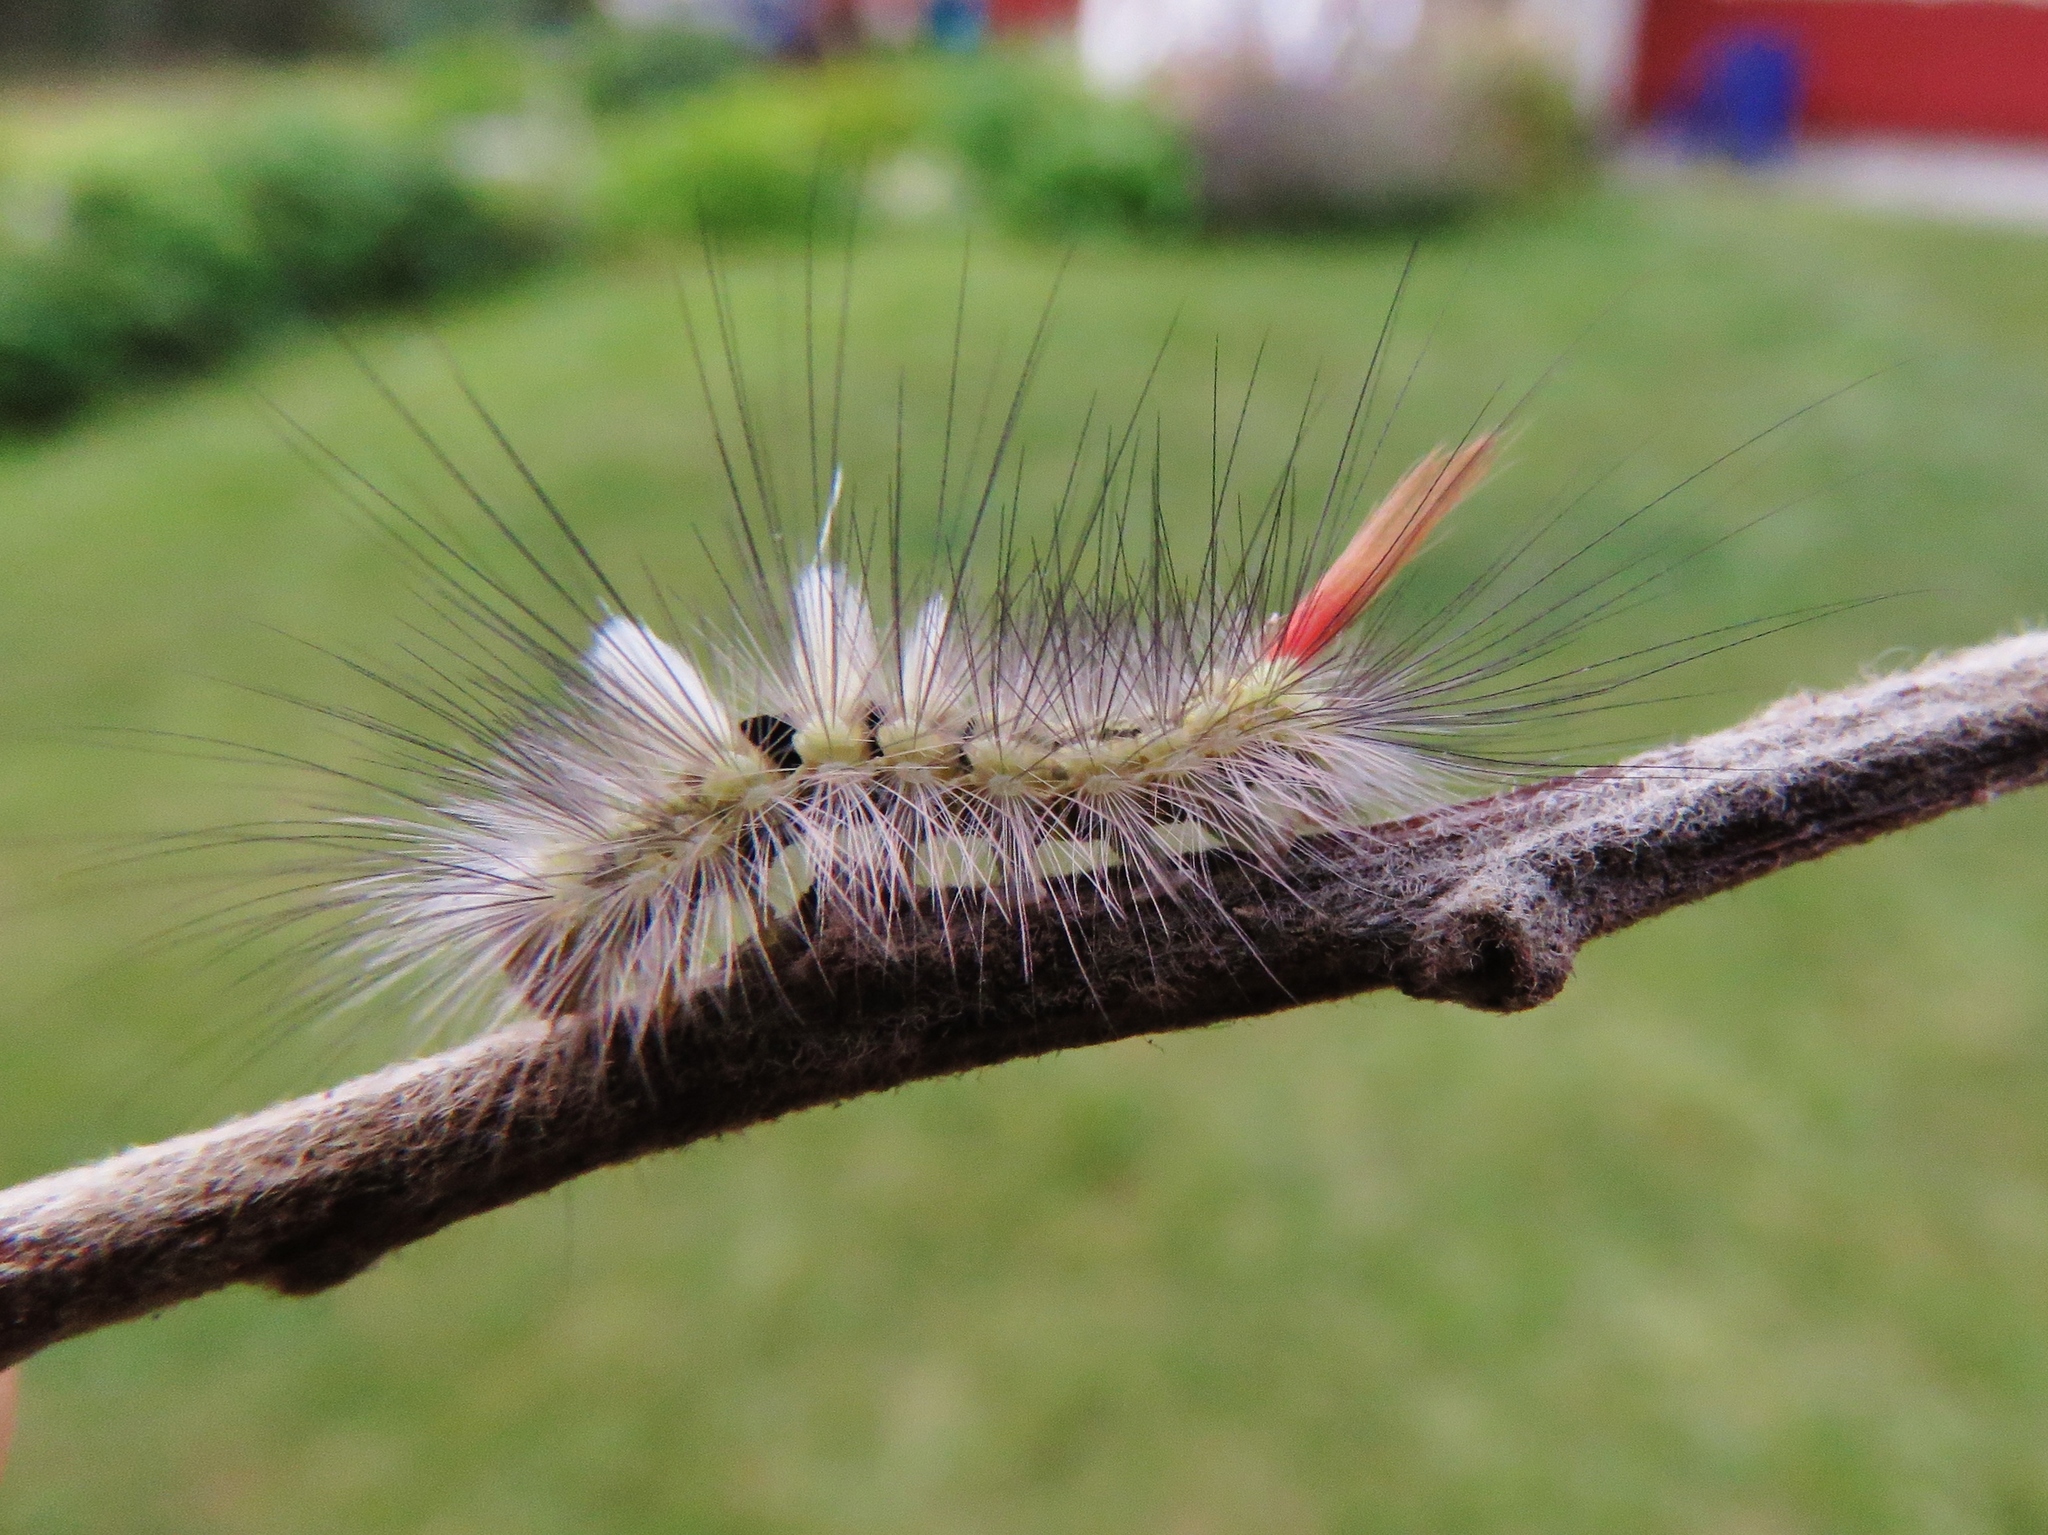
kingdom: Animalia
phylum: Arthropoda
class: Insecta
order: Lepidoptera
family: Erebidae
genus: Calliteara
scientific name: Calliteara pudibunda
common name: Pale tussock
